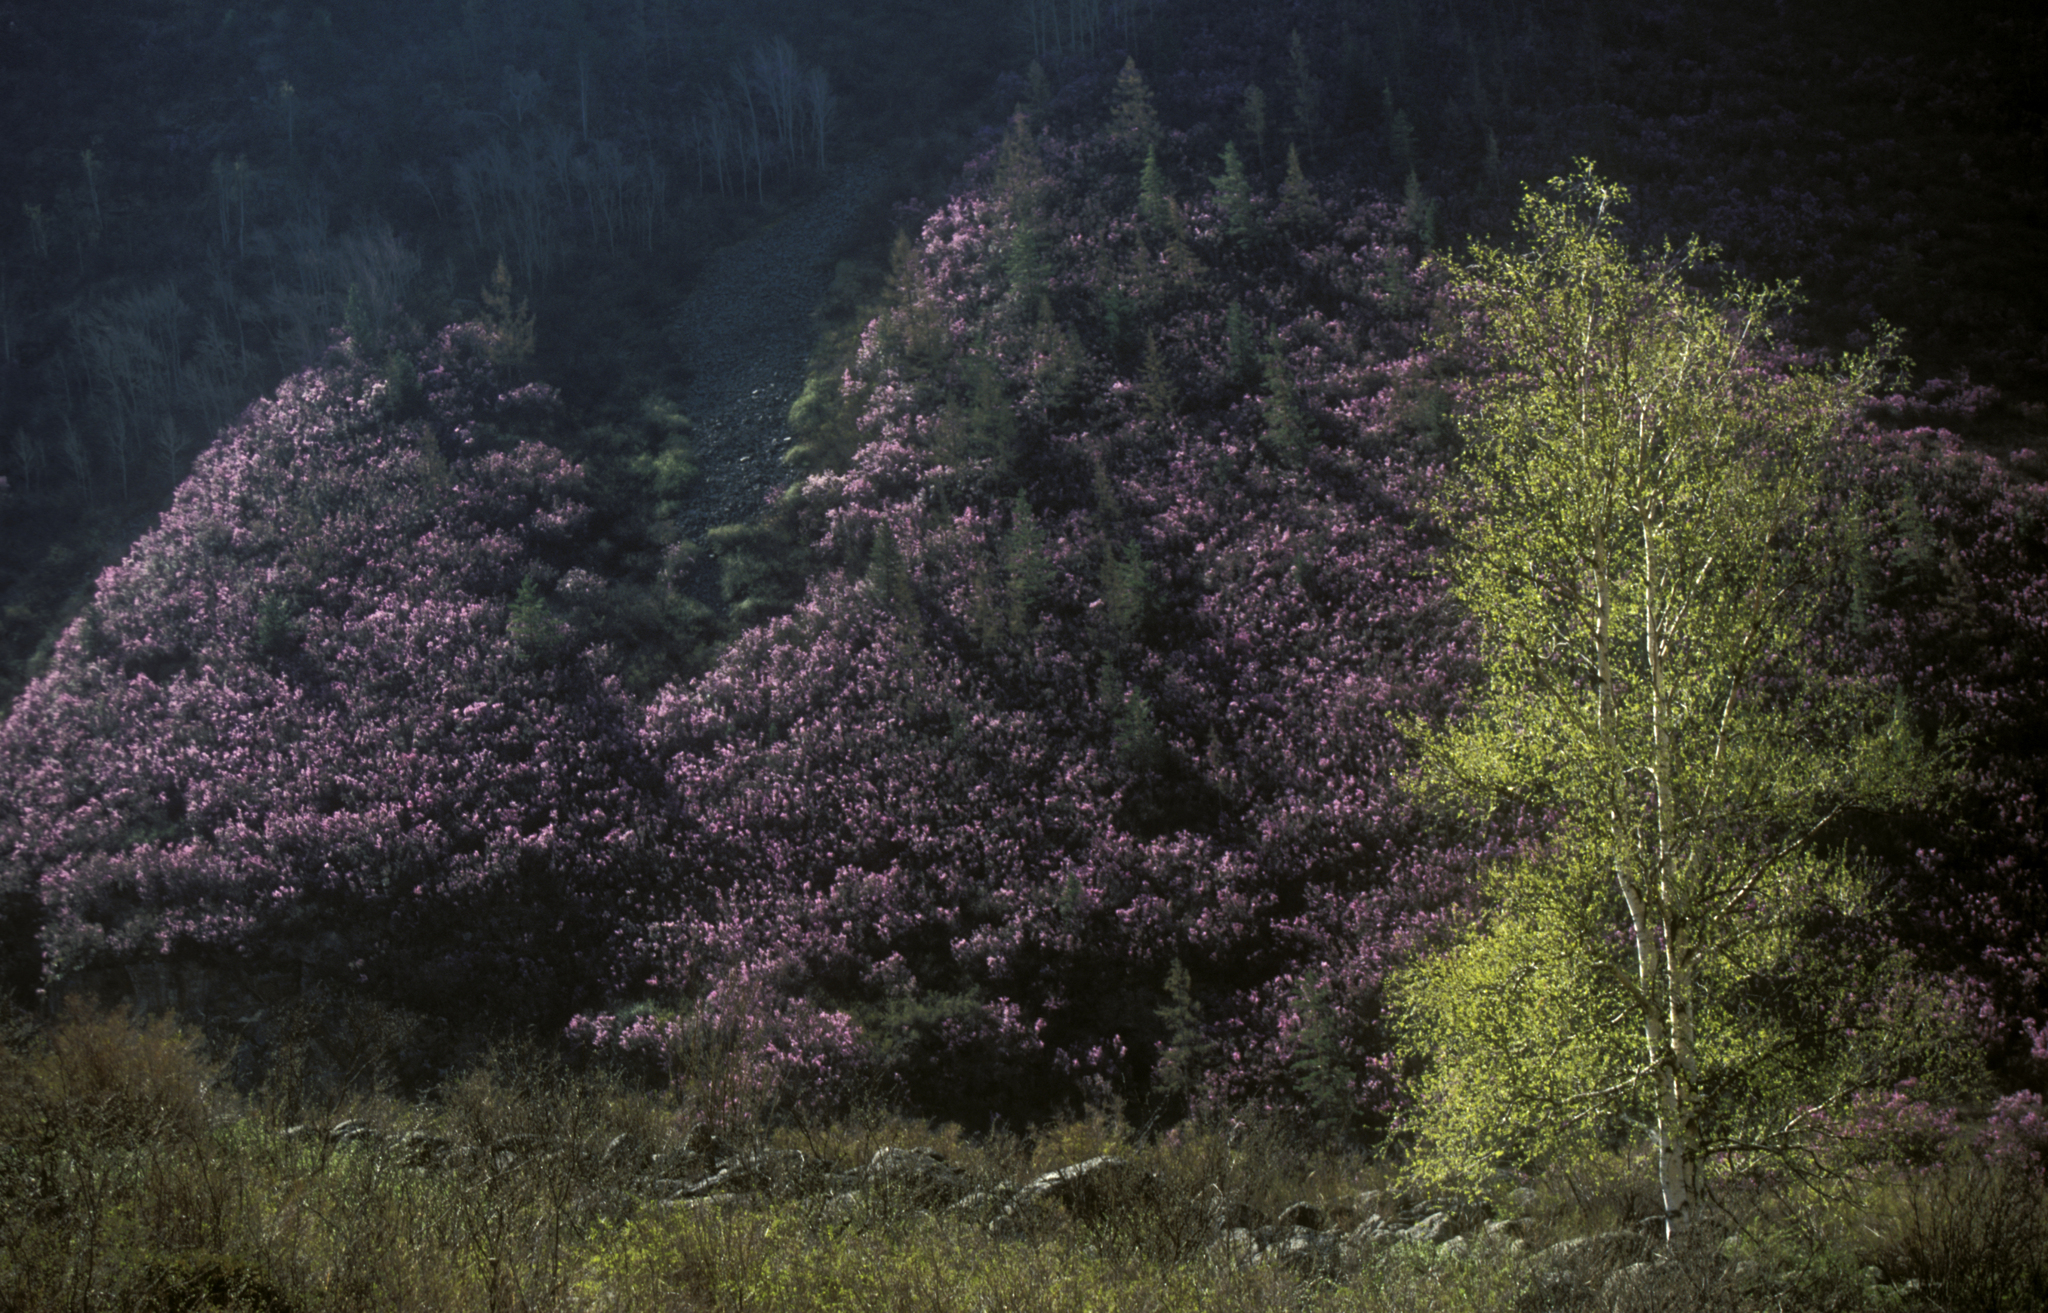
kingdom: Plantae
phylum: Tracheophyta
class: Magnoliopsida
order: Ericales
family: Ericaceae
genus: Rhododendron
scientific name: Rhododendron dauricum
